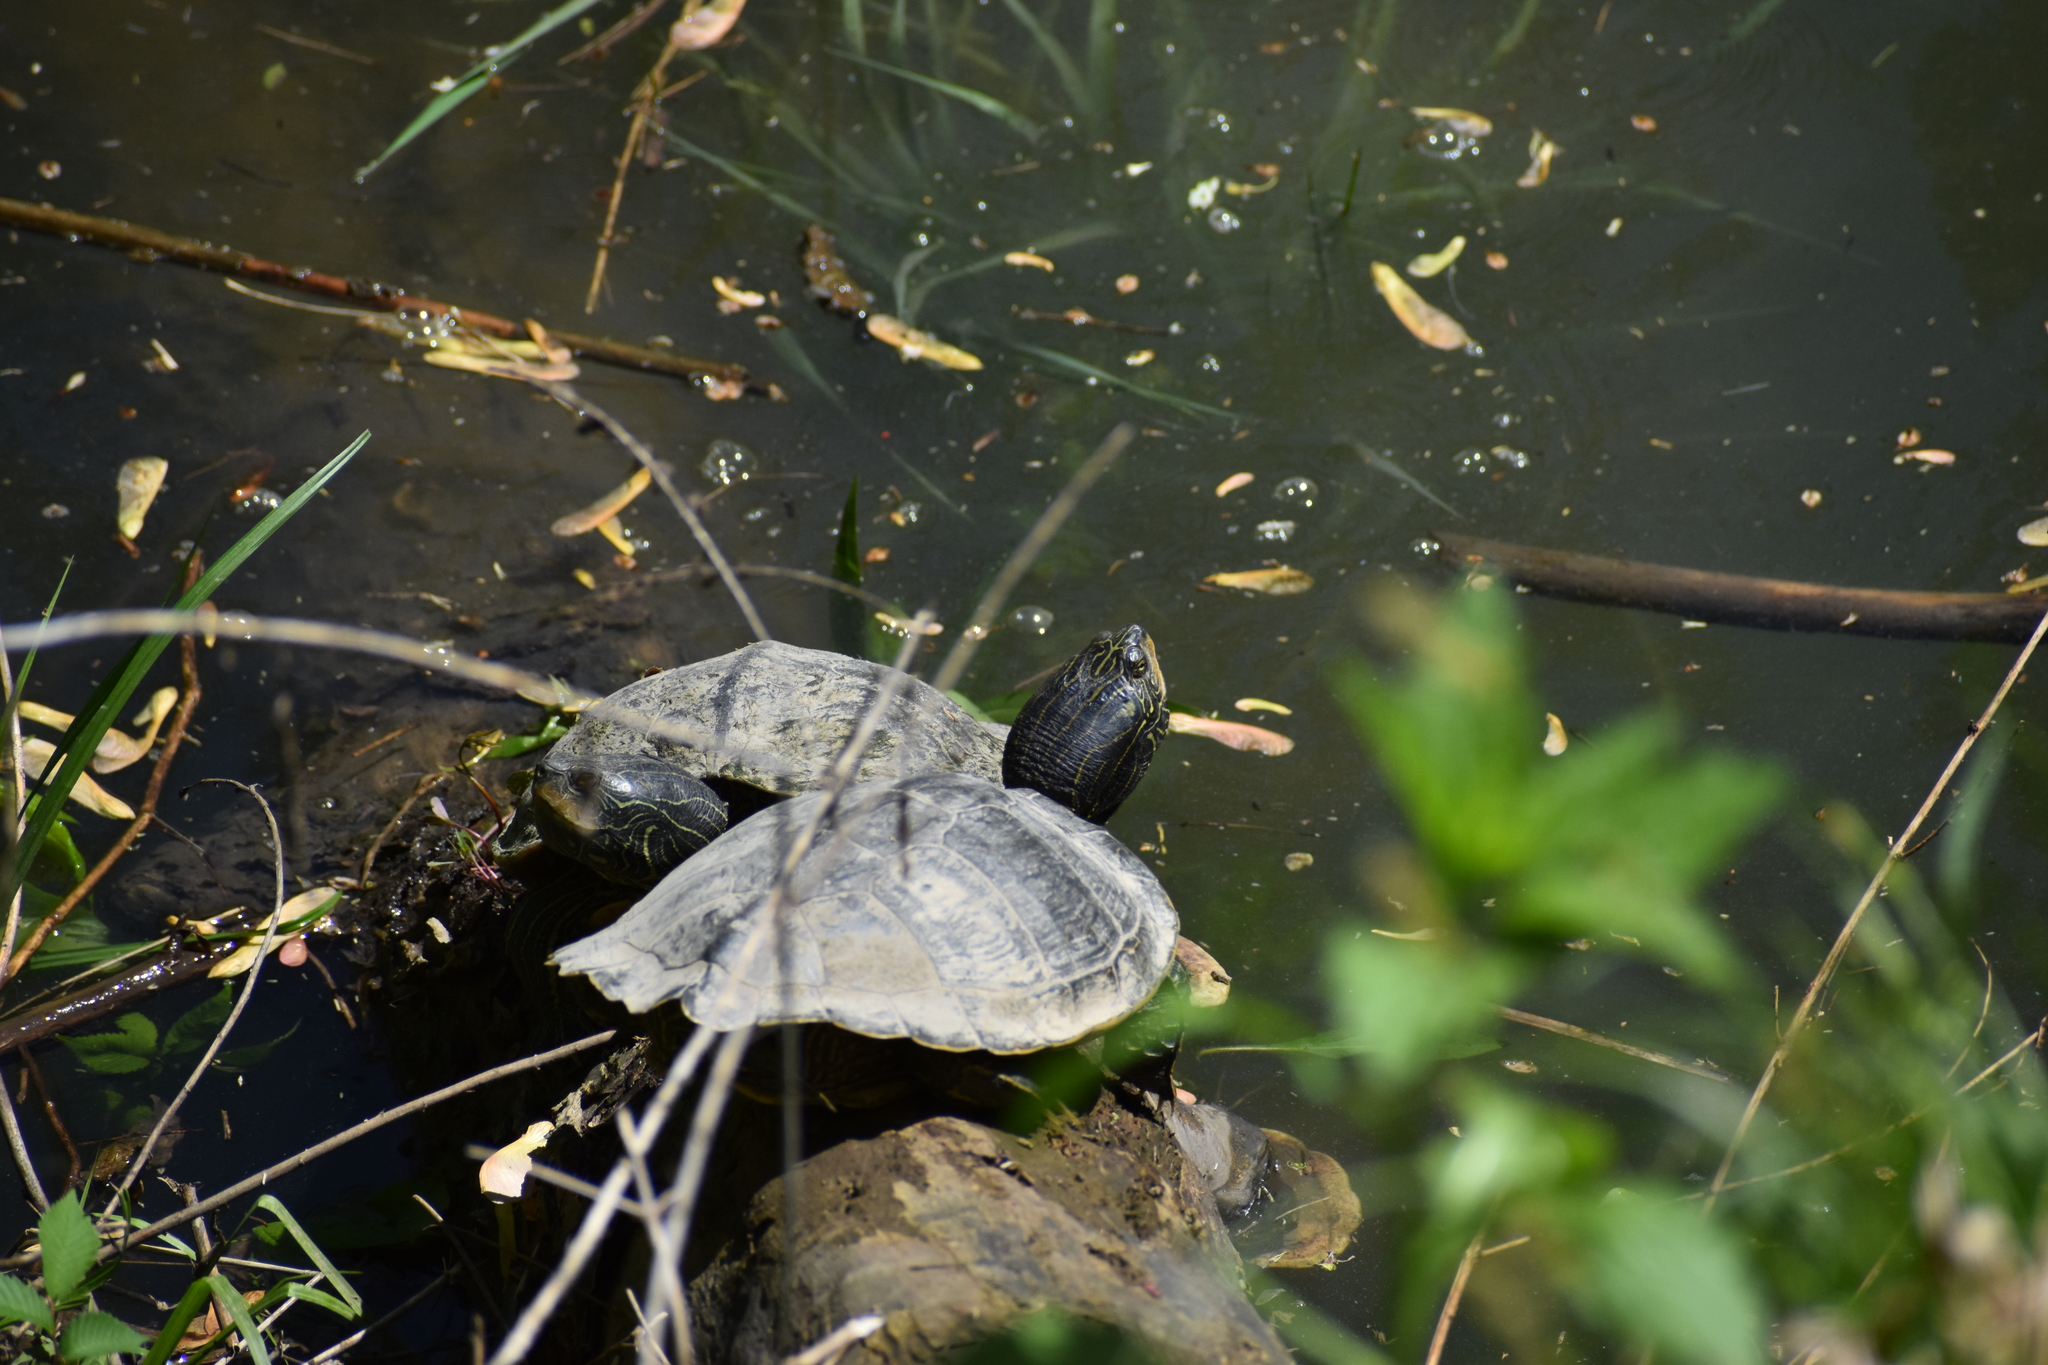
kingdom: Animalia
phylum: Chordata
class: Testudines
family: Emydidae
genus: Graptemys
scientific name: Graptemys geographica
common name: Common map turtle
